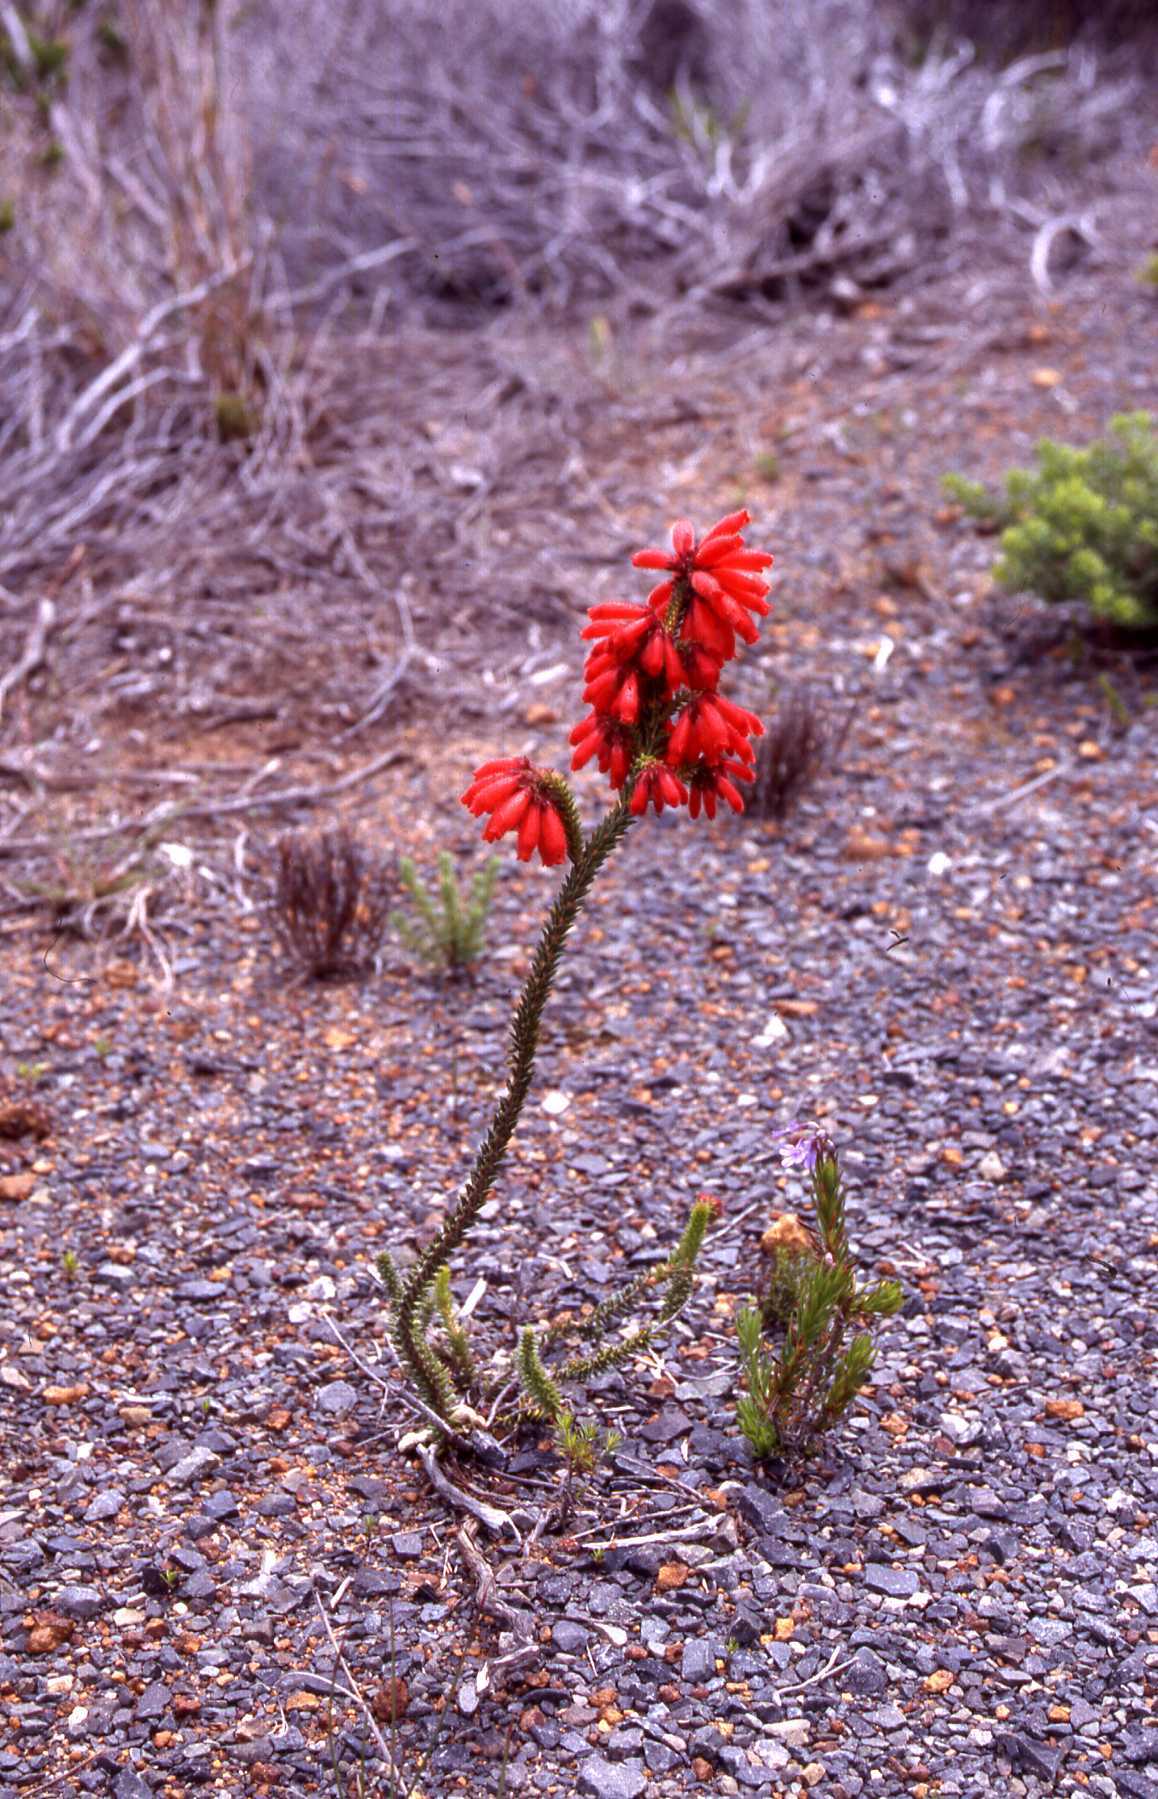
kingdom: Plantae
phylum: Tracheophyta
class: Magnoliopsida
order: Ericales
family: Ericaceae
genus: Erica
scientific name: Erica cerinthoides
